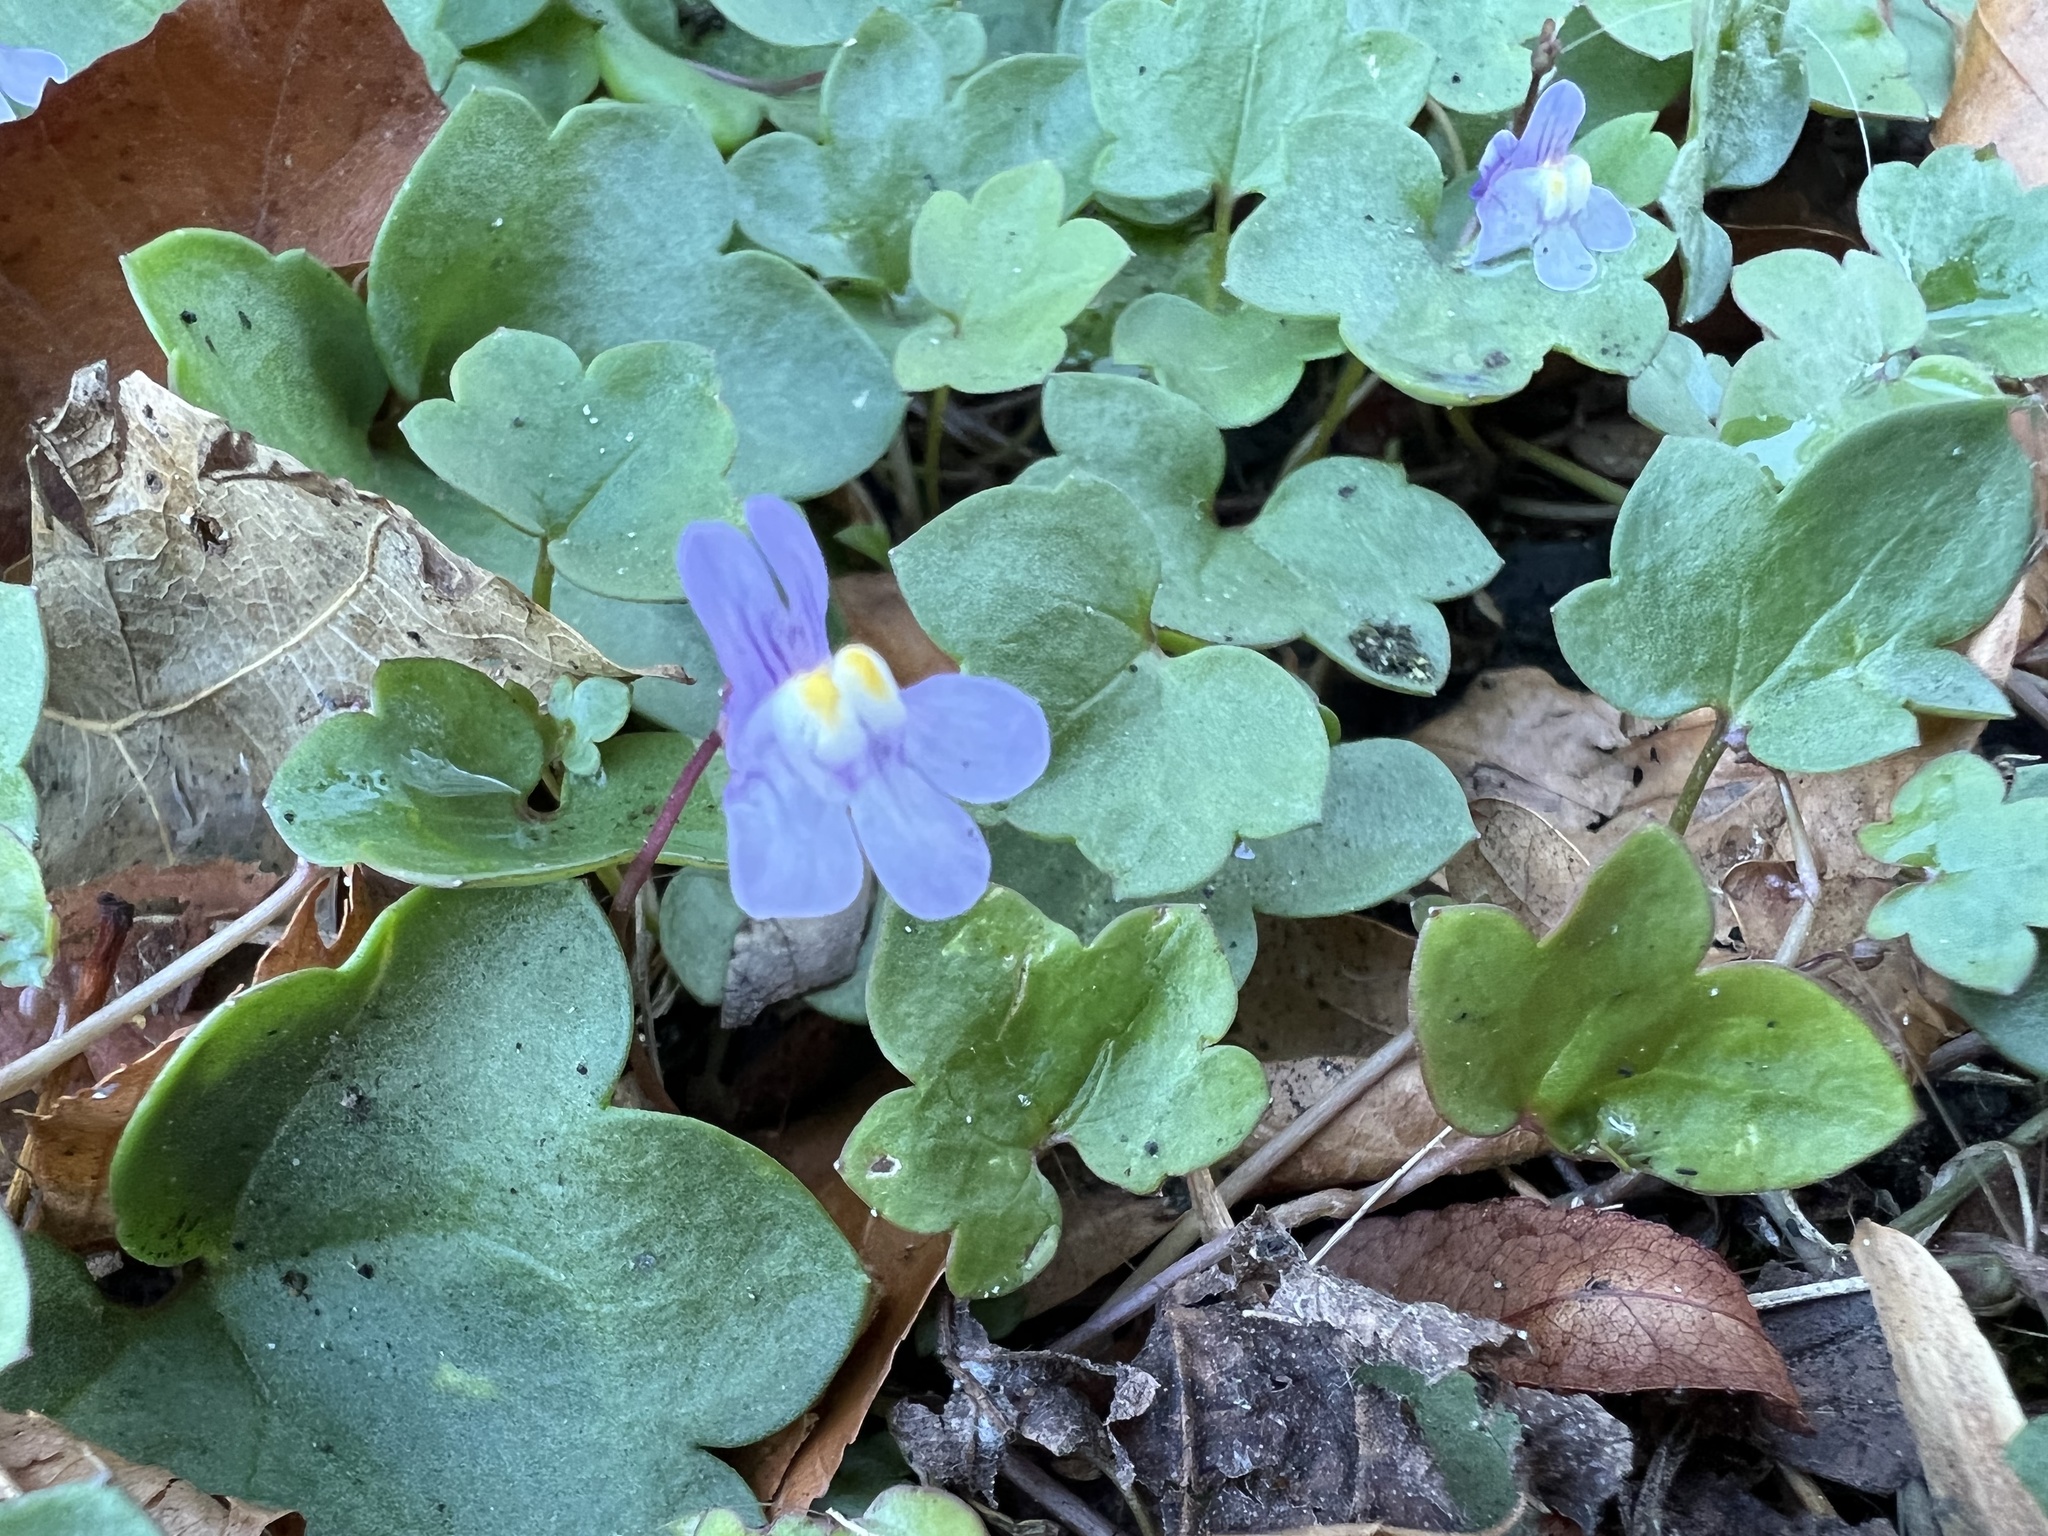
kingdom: Plantae
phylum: Tracheophyta
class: Magnoliopsida
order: Lamiales
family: Plantaginaceae
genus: Cymbalaria
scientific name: Cymbalaria muralis
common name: Ivy-leaved toadflax
